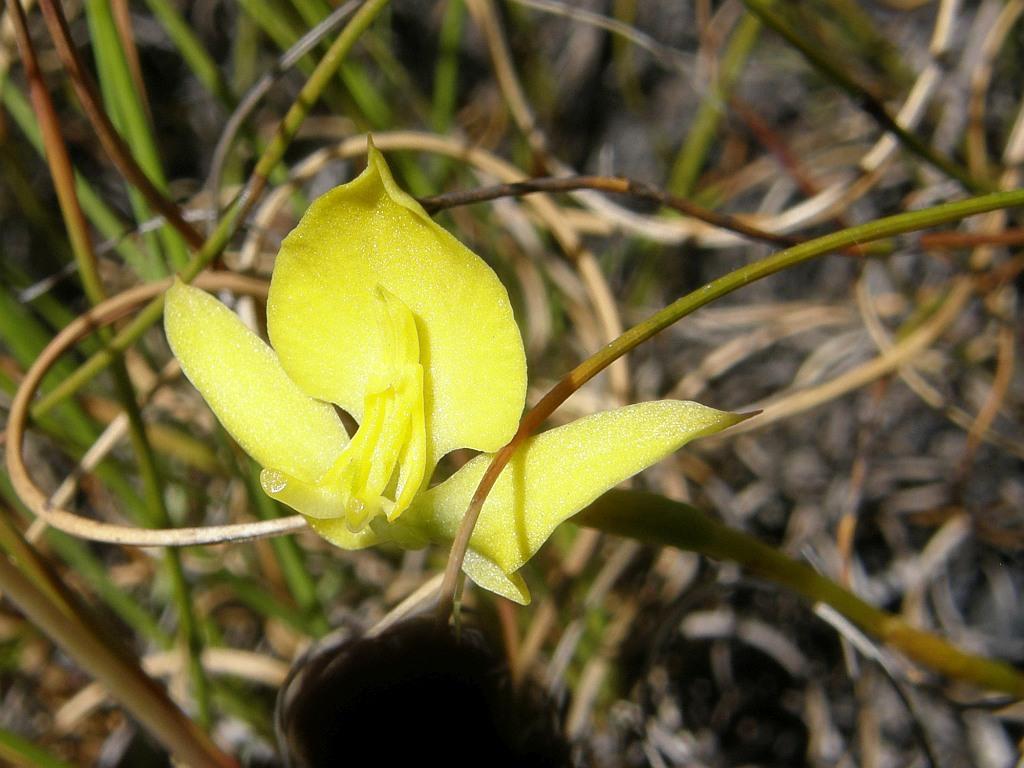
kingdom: Plantae
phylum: Tracheophyta
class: Liliopsida
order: Asparagales
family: Orchidaceae
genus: Disa
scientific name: Disa tenuifolia
